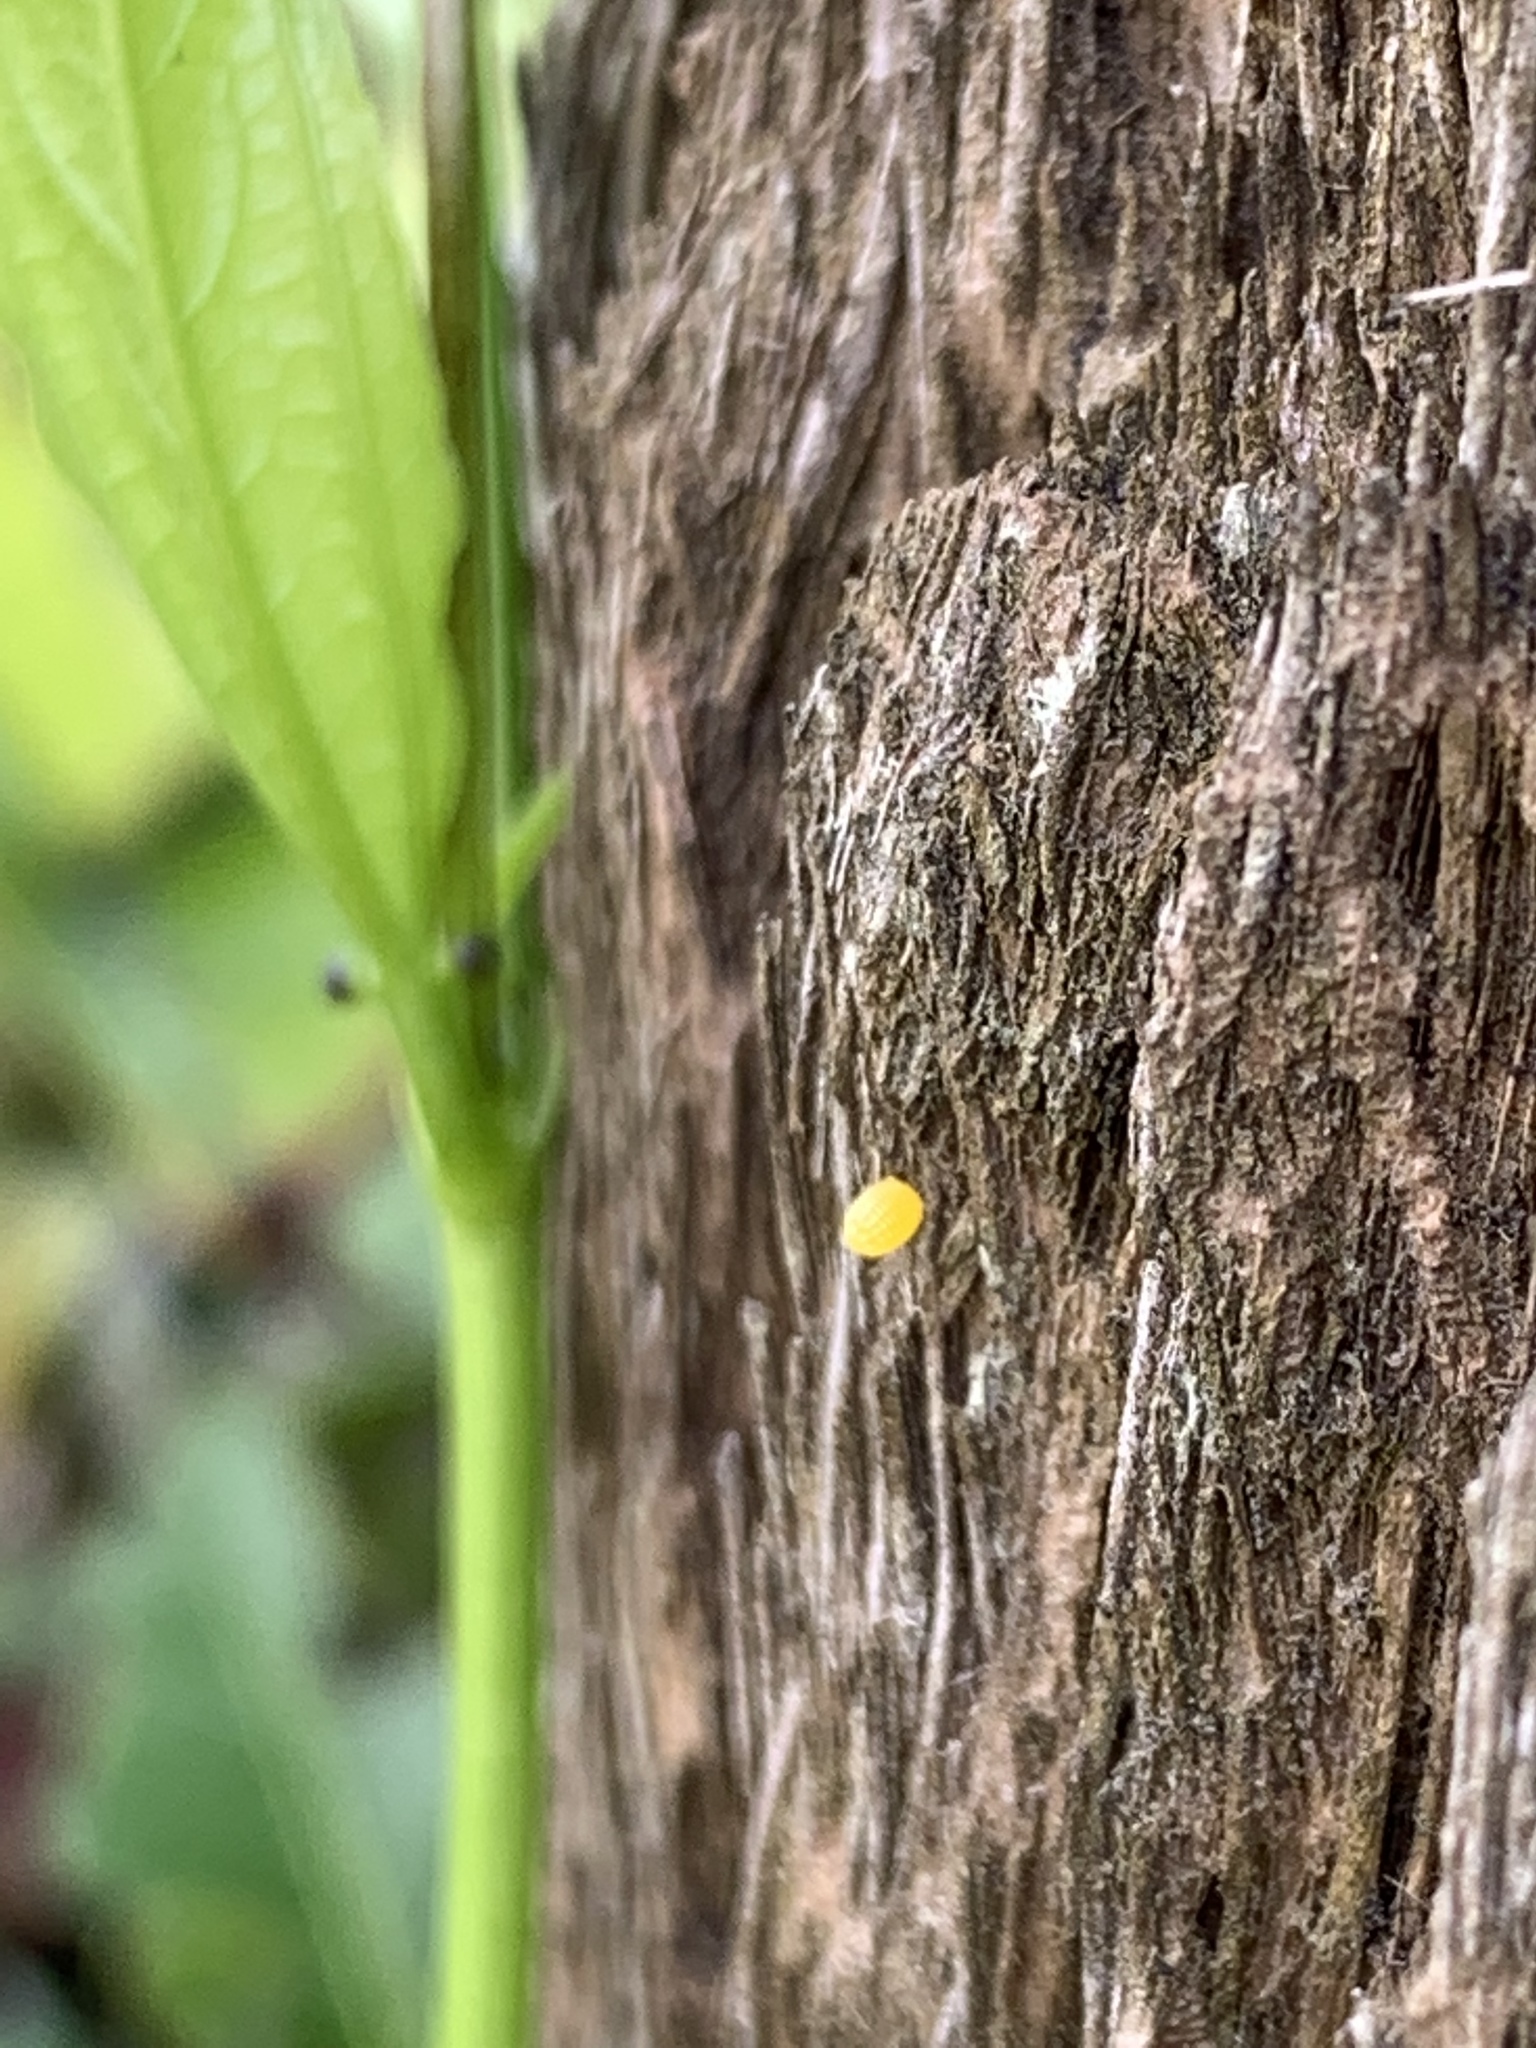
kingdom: Animalia
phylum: Arthropoda
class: Insecta
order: Lepidoptera
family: Nymphalidae
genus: Dione
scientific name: Dione vanillae
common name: Gulf fritillary
